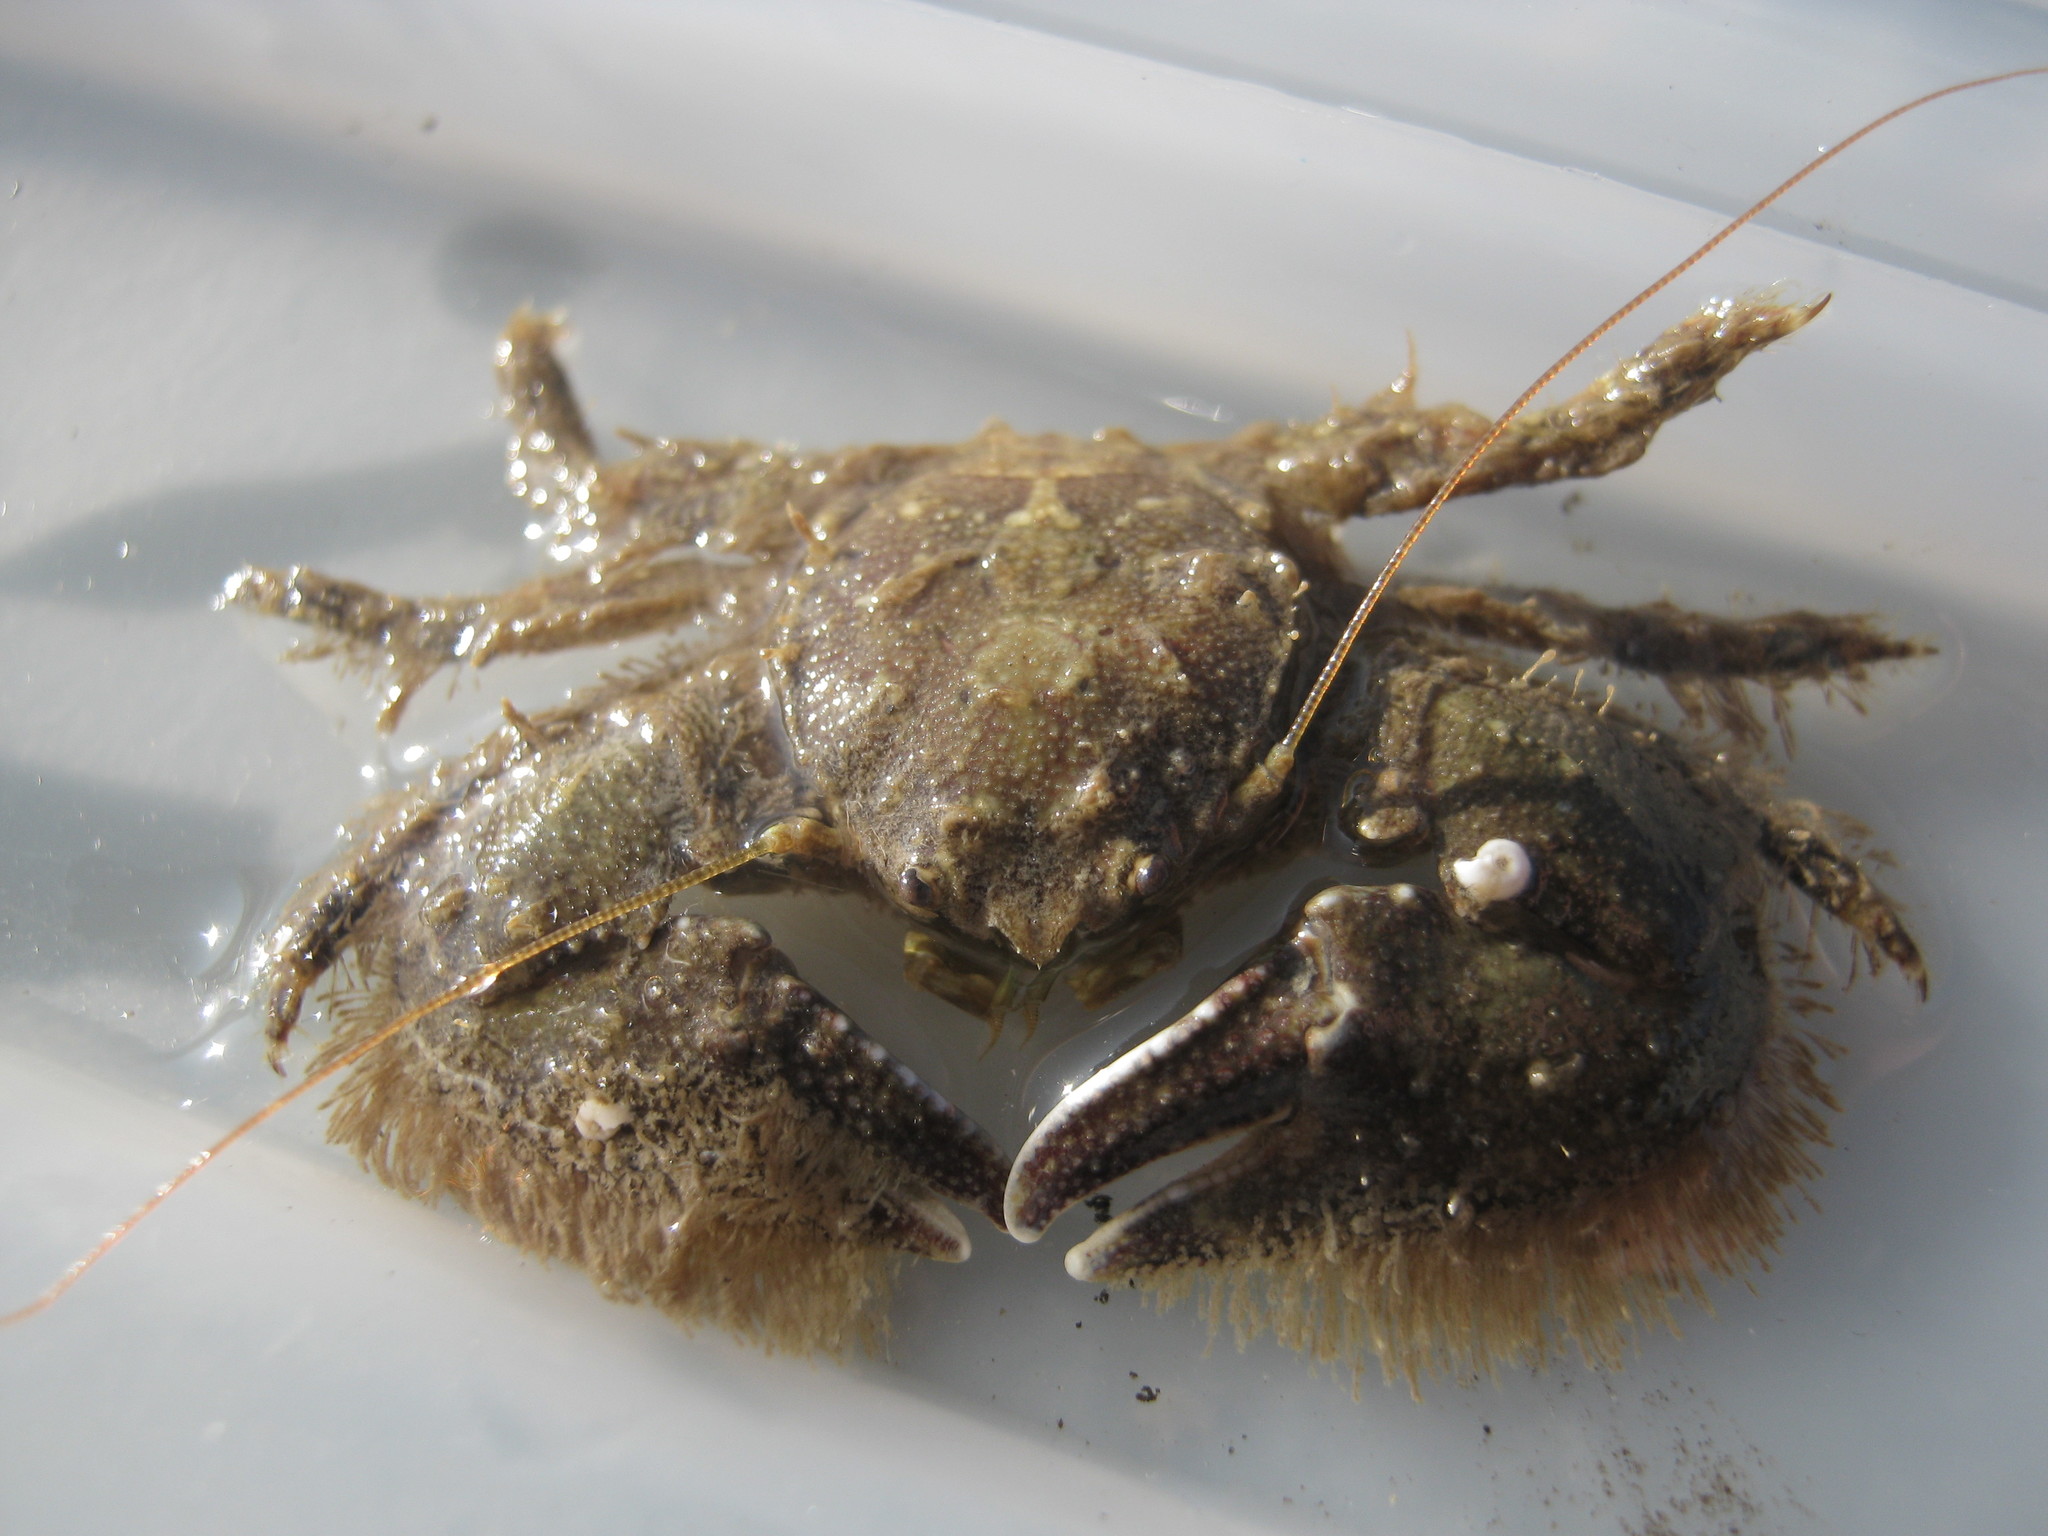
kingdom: Animalia
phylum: Arthropoda
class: Malacostraca
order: Decapoda
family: Porcellanidae
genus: Porcellana
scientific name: Porcellana platycheles
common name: Porcelain crab
